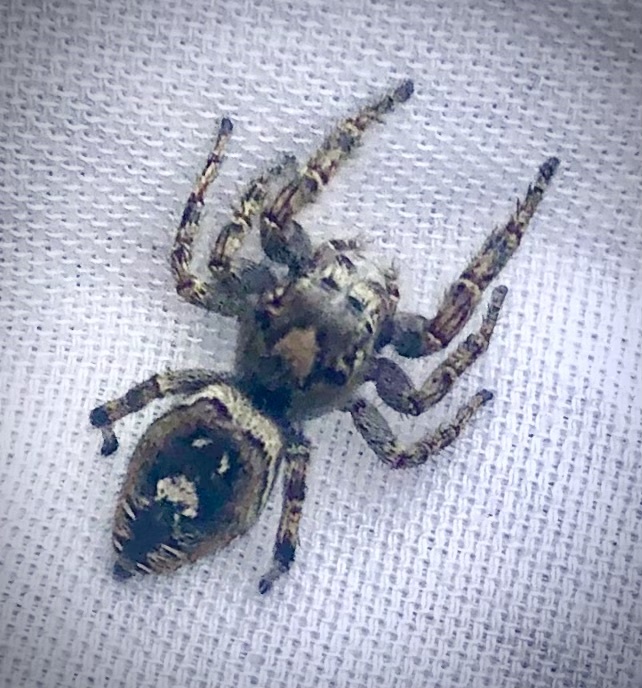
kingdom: Animalia
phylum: Arthropoda
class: Arachnida
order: Araneae
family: Salticidae
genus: Phidippus
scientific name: Phidippus putnami
